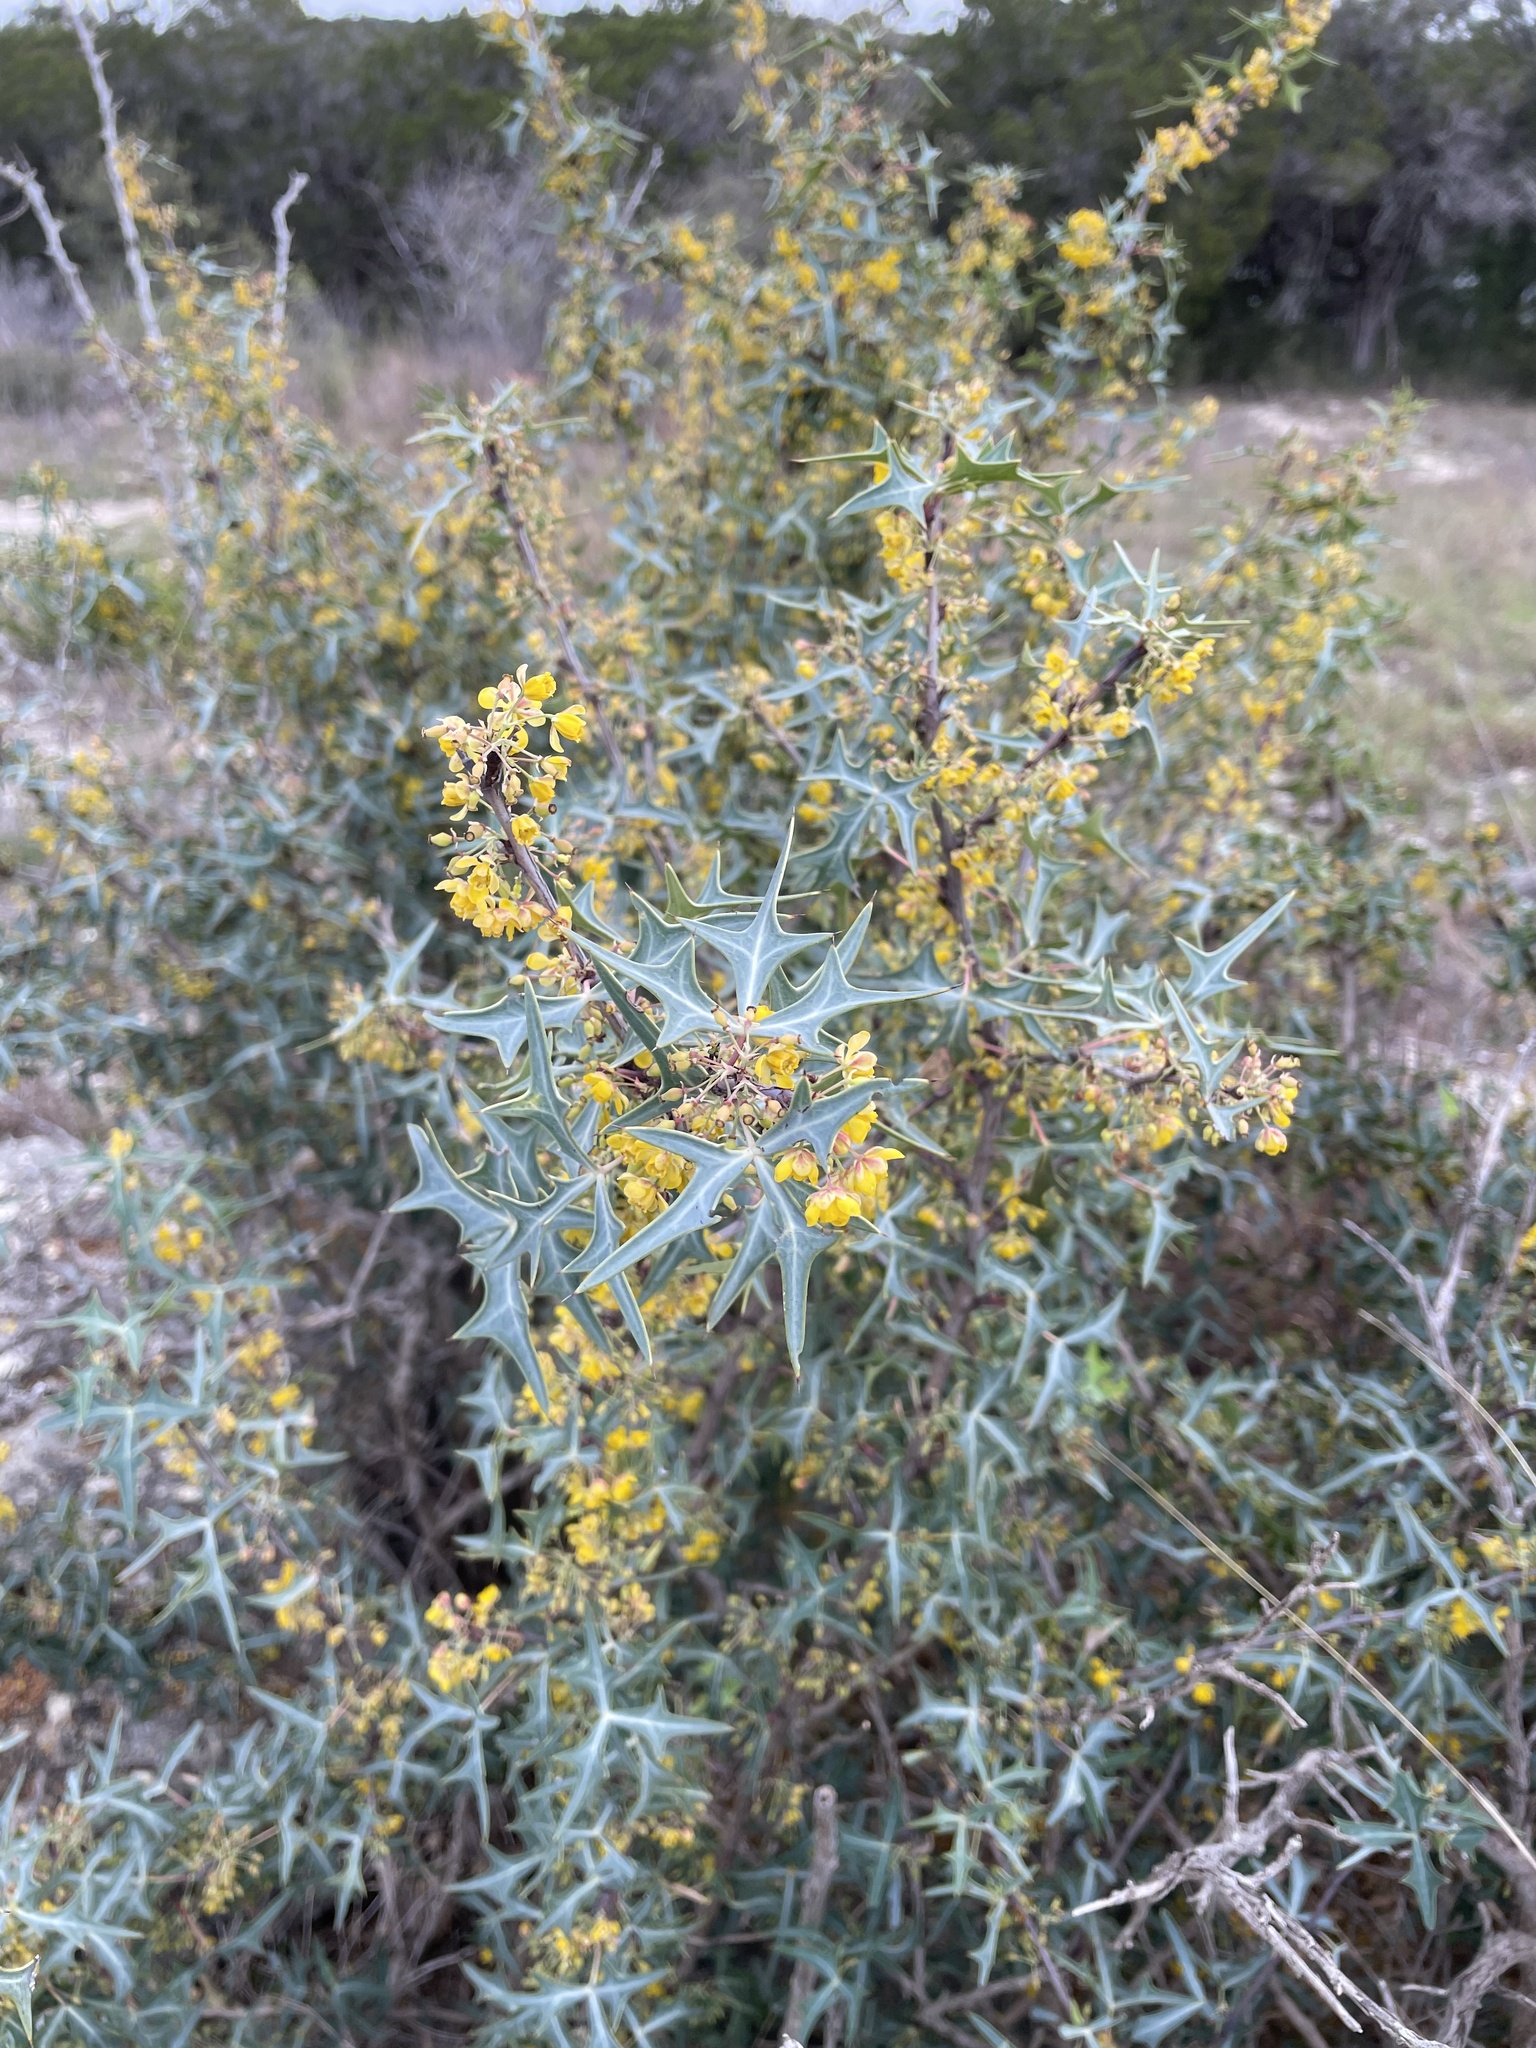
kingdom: Plantae
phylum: Tracheophyta
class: Magnoliopsida
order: Ranunculales
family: Berberidaceae
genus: Alloberberis
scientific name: Alloberberis trifoliolata
